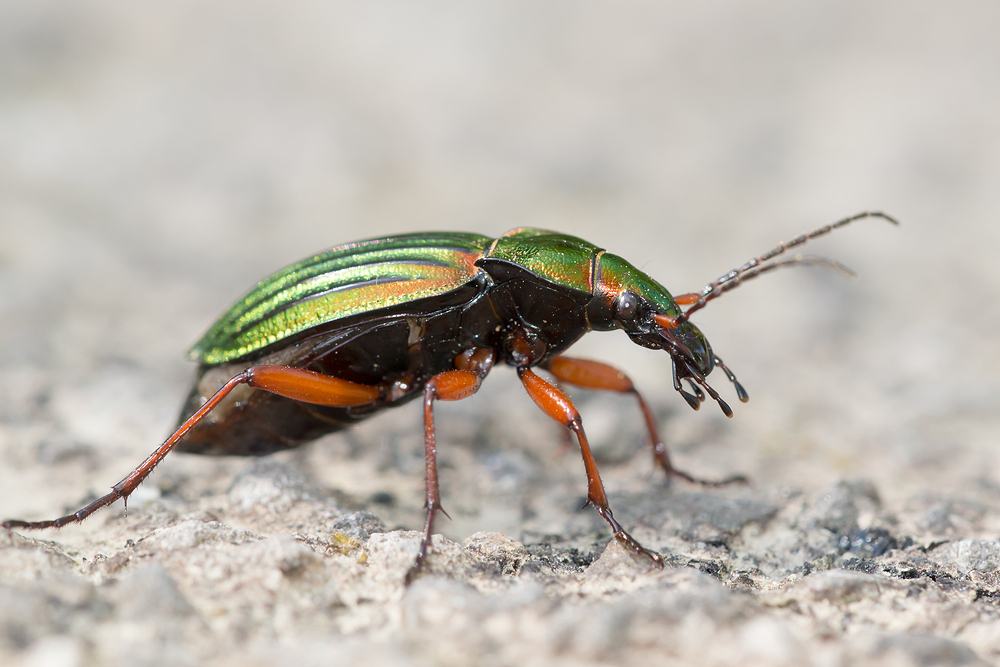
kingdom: Animalia
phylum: Arthropoda
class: Insecta
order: Coleoptera
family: Carabidae
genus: Carabus
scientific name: Carabus auronitens
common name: Carabus auronitens
